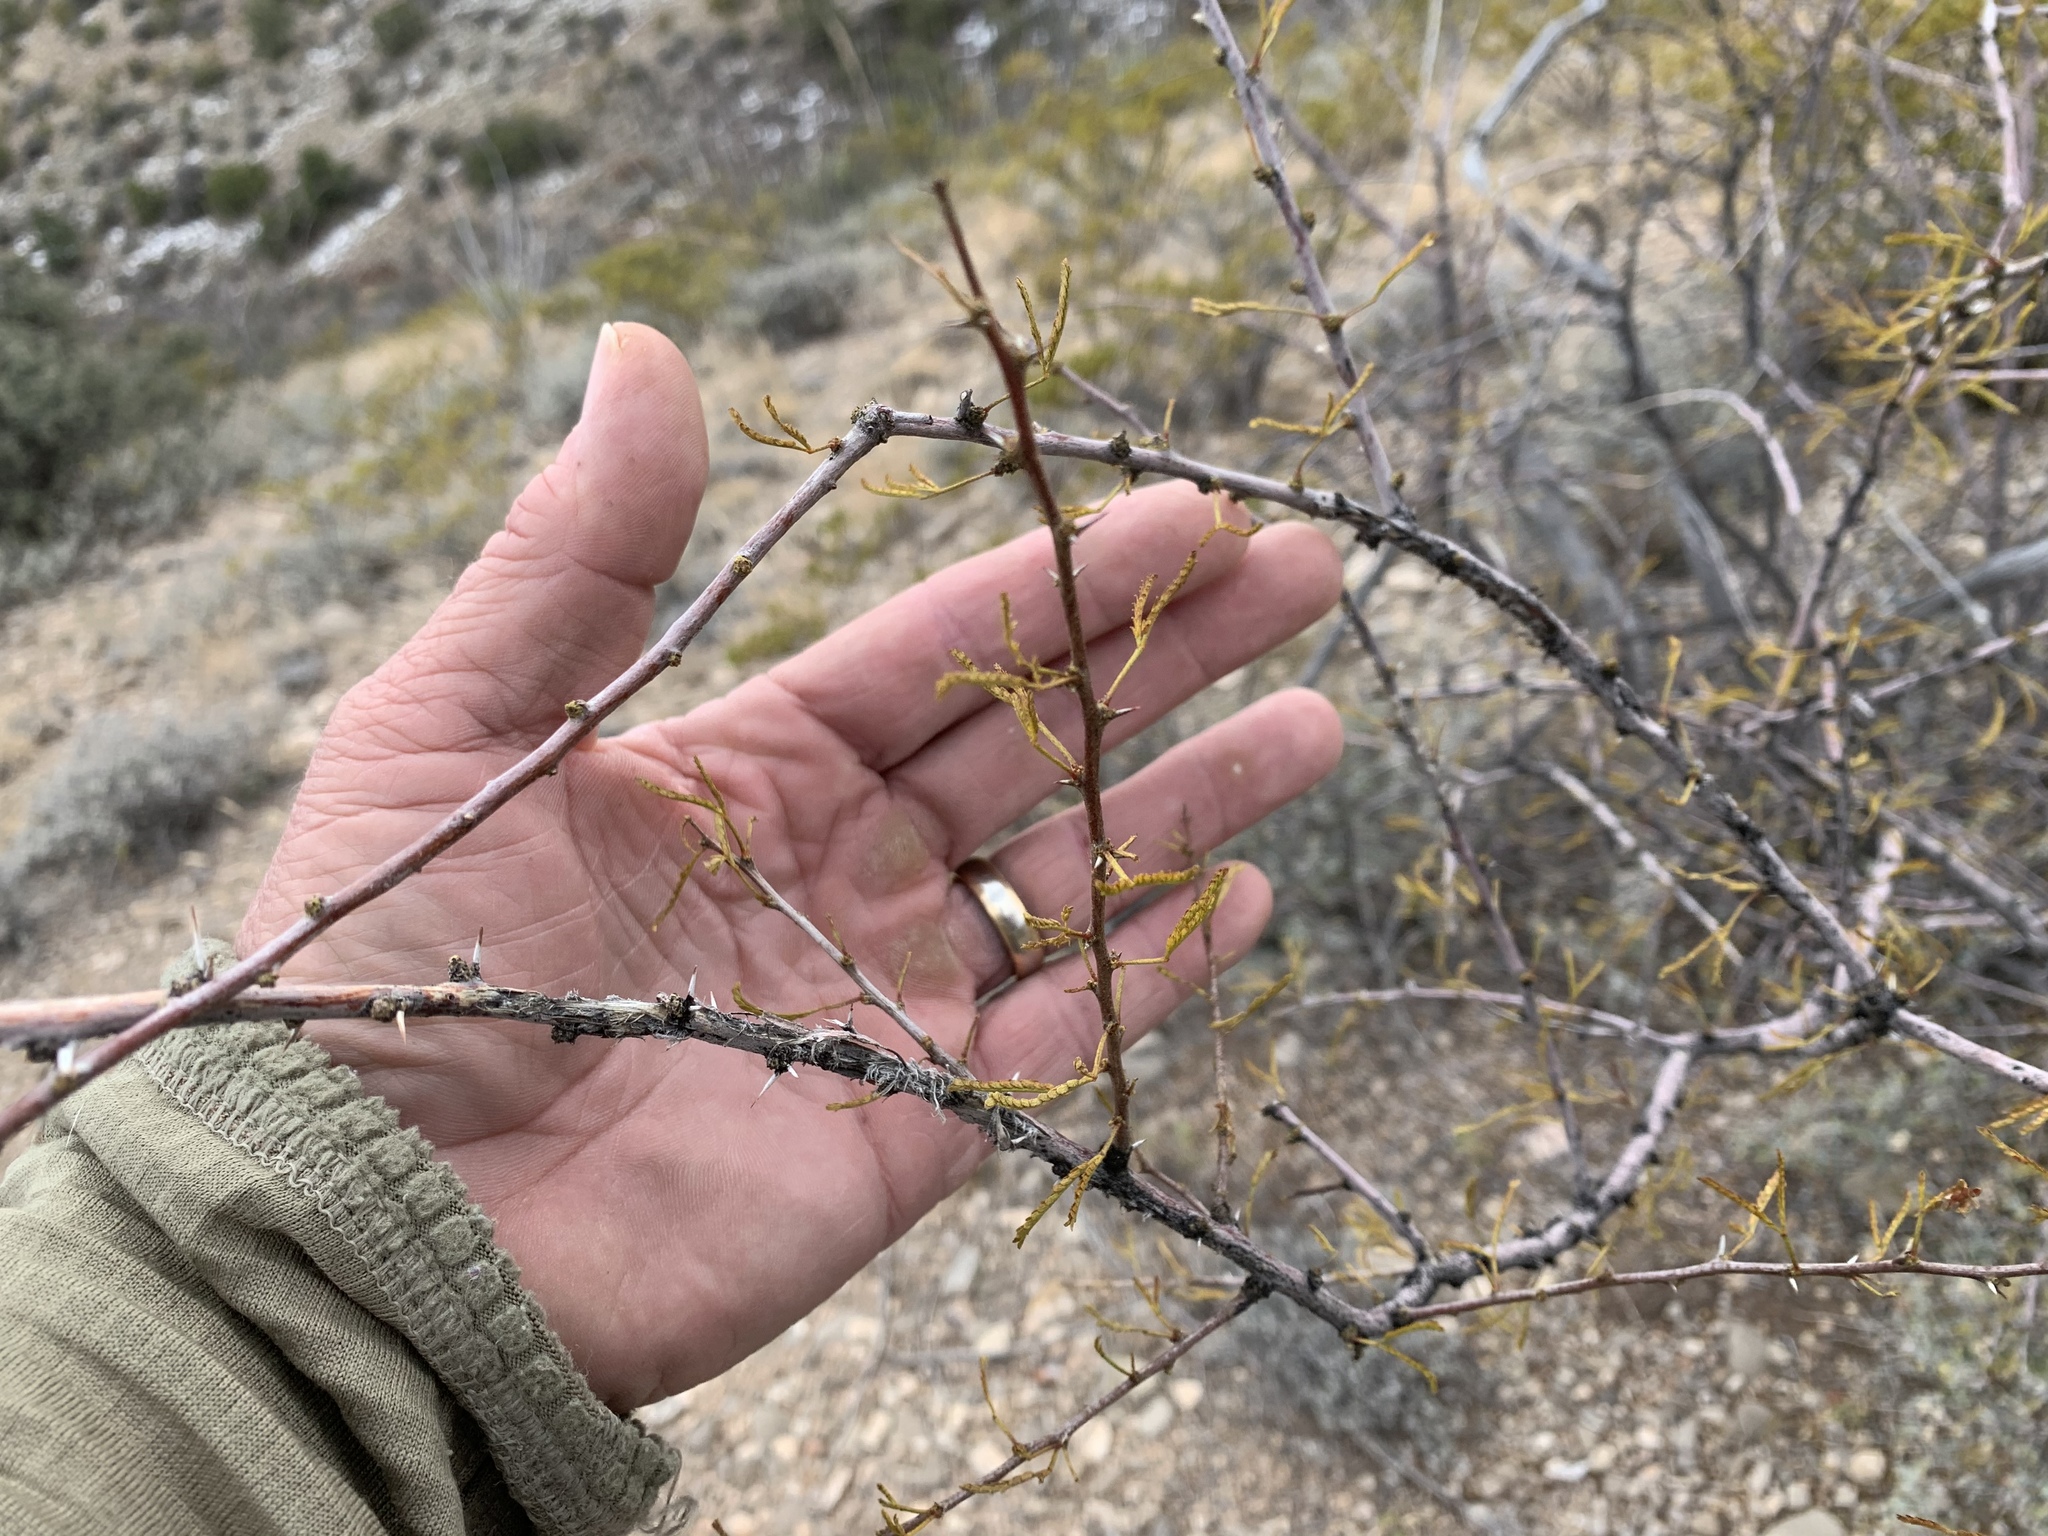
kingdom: Plantae
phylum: Tracheophyta
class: Magnoliopsida
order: Fabales
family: Fabaceae
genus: Vachellia
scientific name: Vachellia constricta
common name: Mescat acacia
